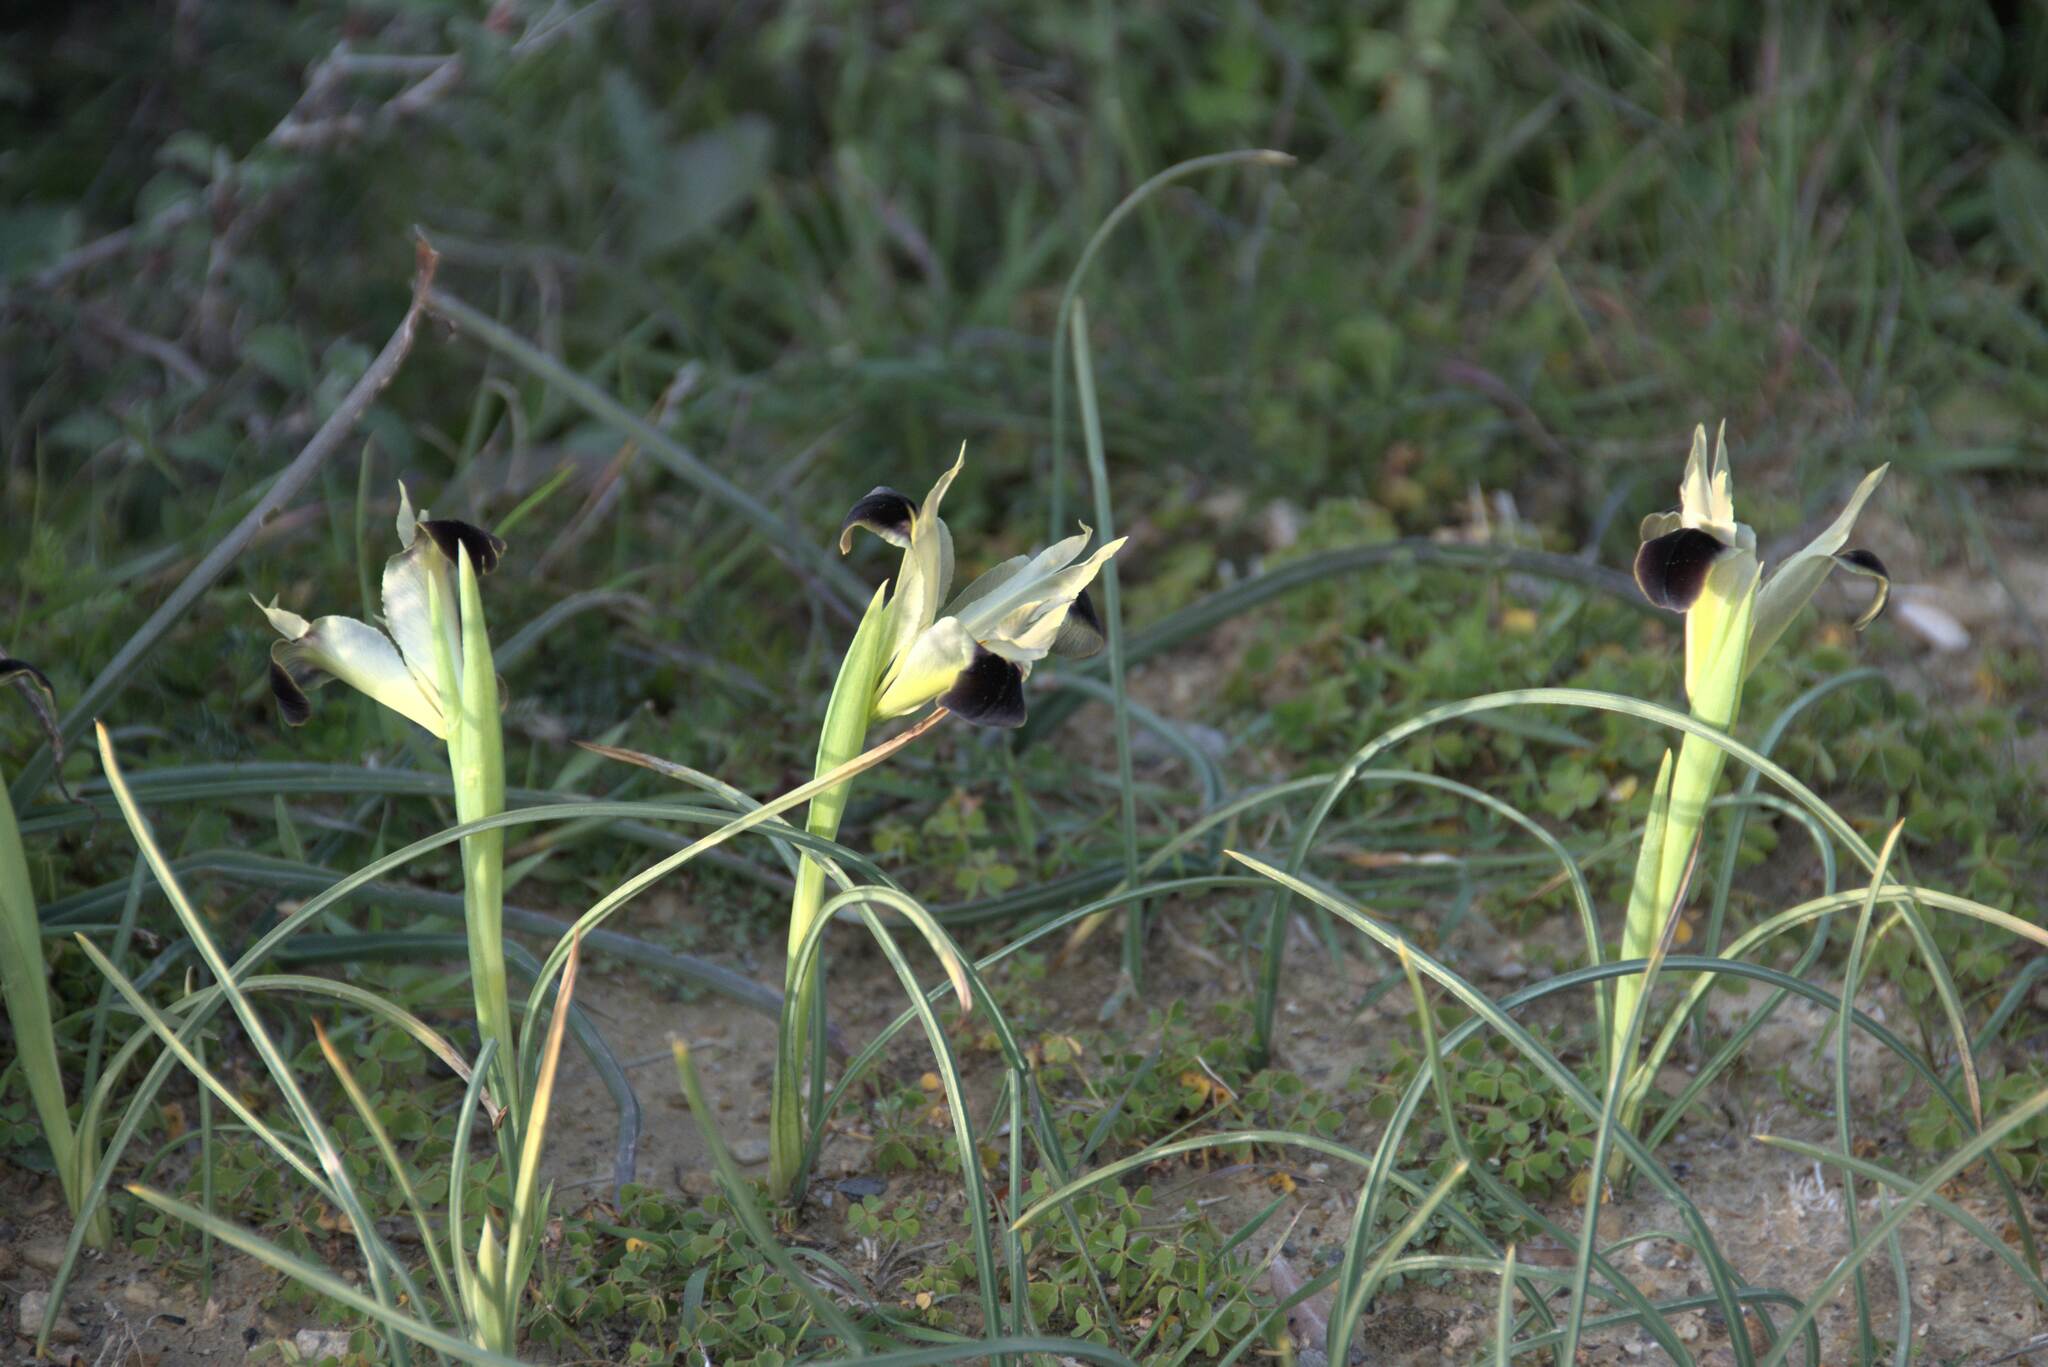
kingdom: Plantae
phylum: Tracheophyta
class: Liliopsida
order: Asparagales
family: Iridaceae
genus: Iris
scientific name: Iris tuberosa
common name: Snake's-head iris
